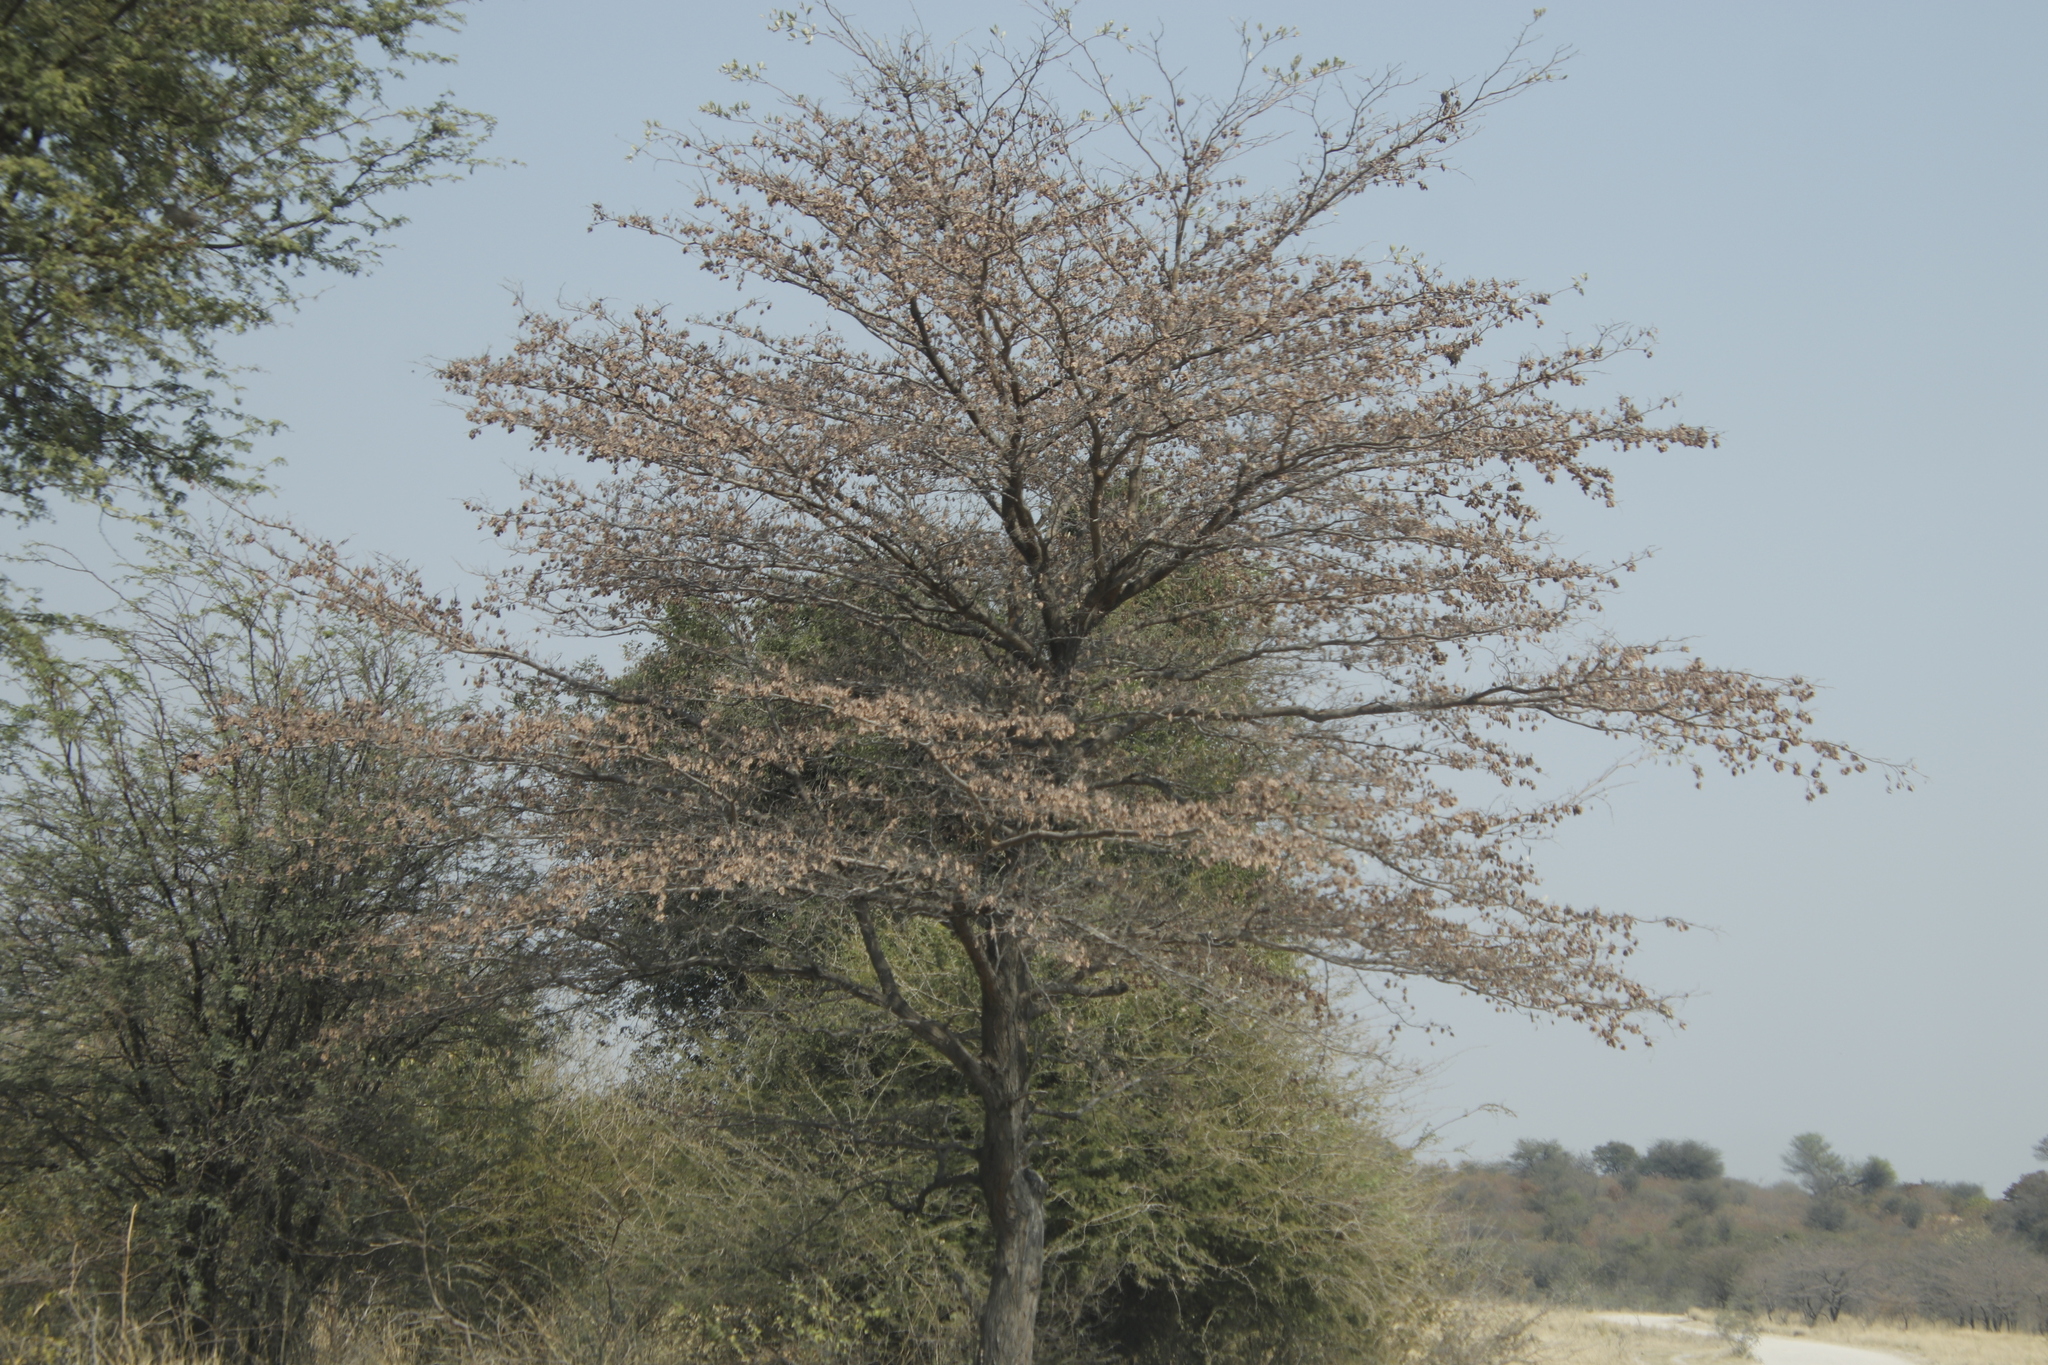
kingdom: Plantae
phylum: Tracheophyta
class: Magnoliopsida
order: Myrtales
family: Combretaceae
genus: Terminalia
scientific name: Terminalia sericea
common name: Clusterleaf
